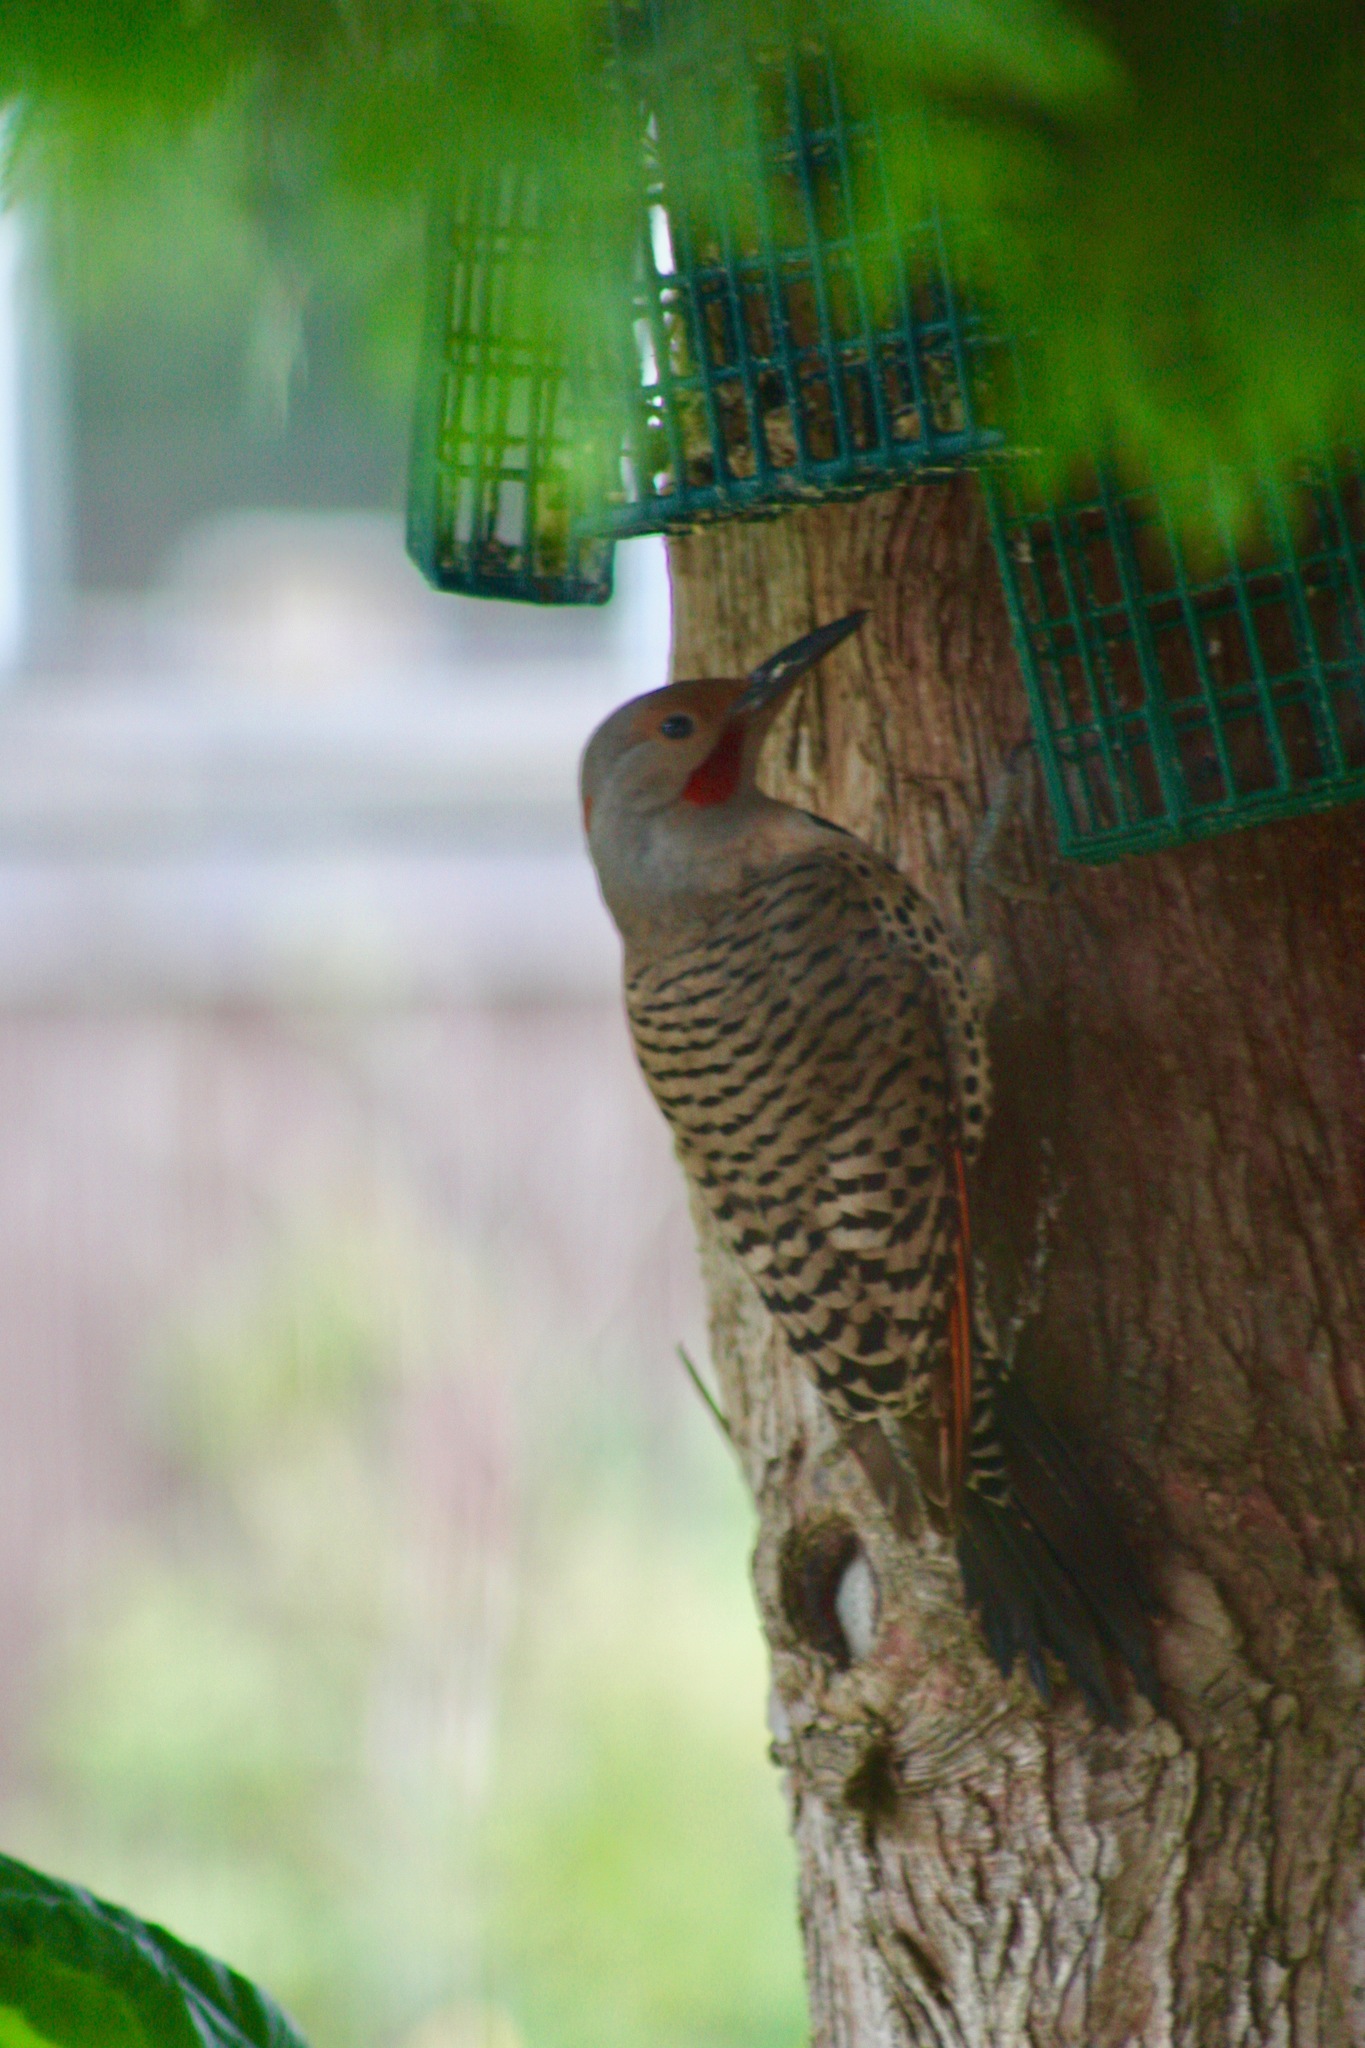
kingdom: Animalia
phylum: Chordata
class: Aves
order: Piciformes
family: Picidae
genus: Colaptes
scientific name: Colaptes auratus
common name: Northern flicker
